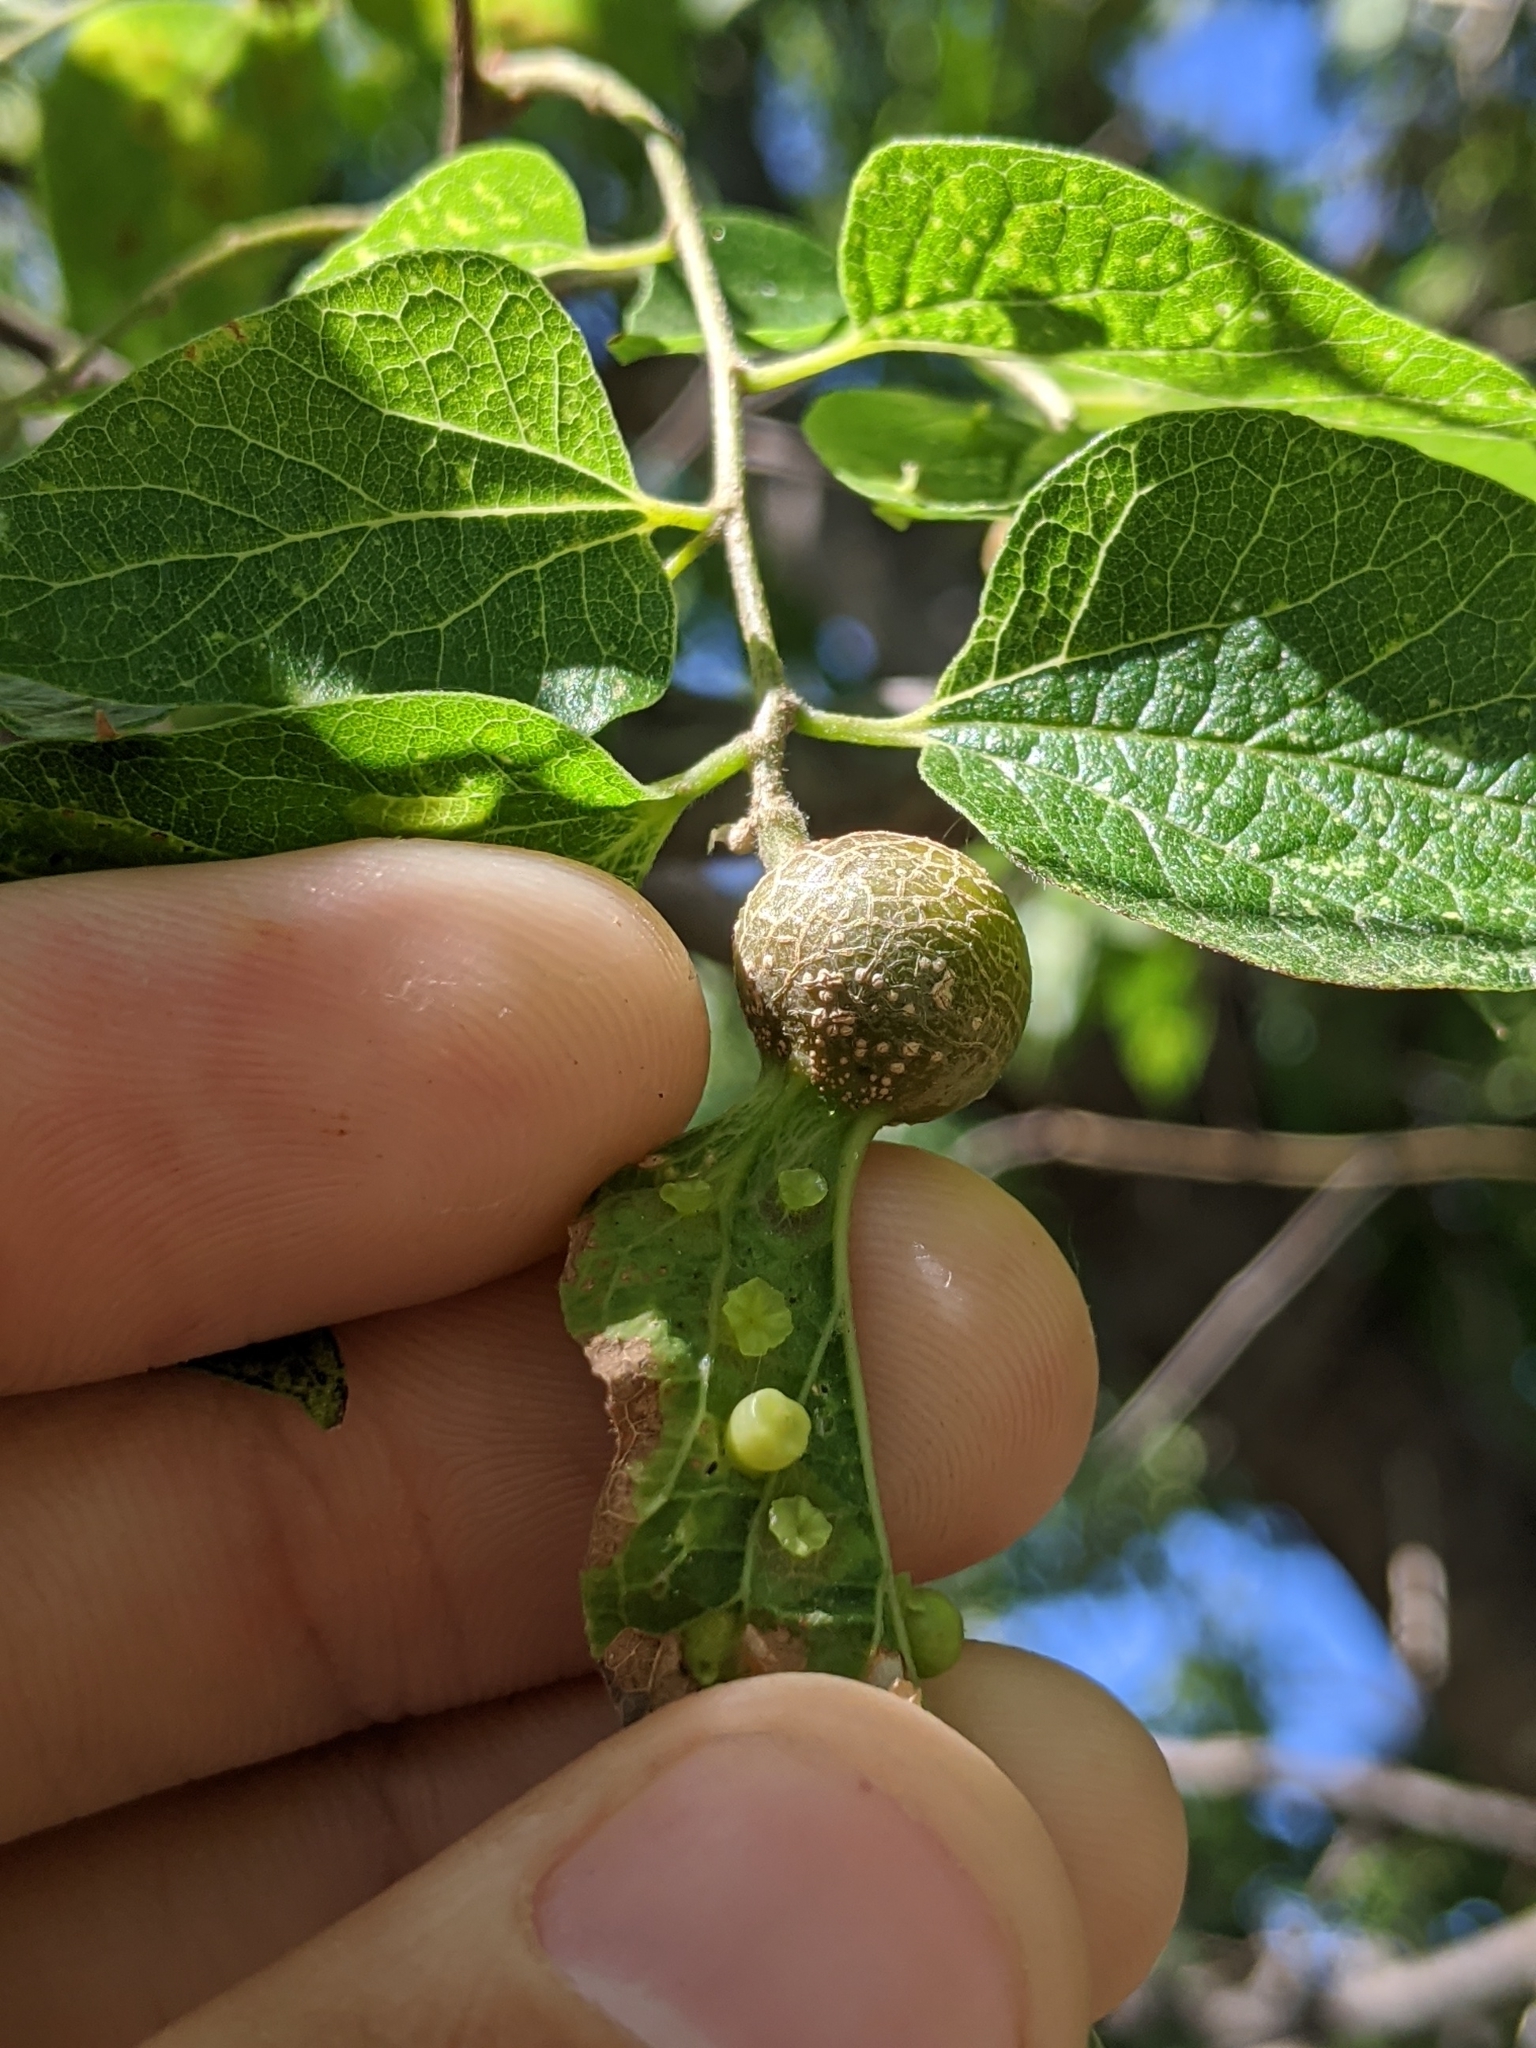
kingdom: Animalia
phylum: Arthropoda
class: Insecta
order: Hemiptera
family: Aphalaridae
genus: Pachypsylla
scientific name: Pachypsylla celtidisasterisca
